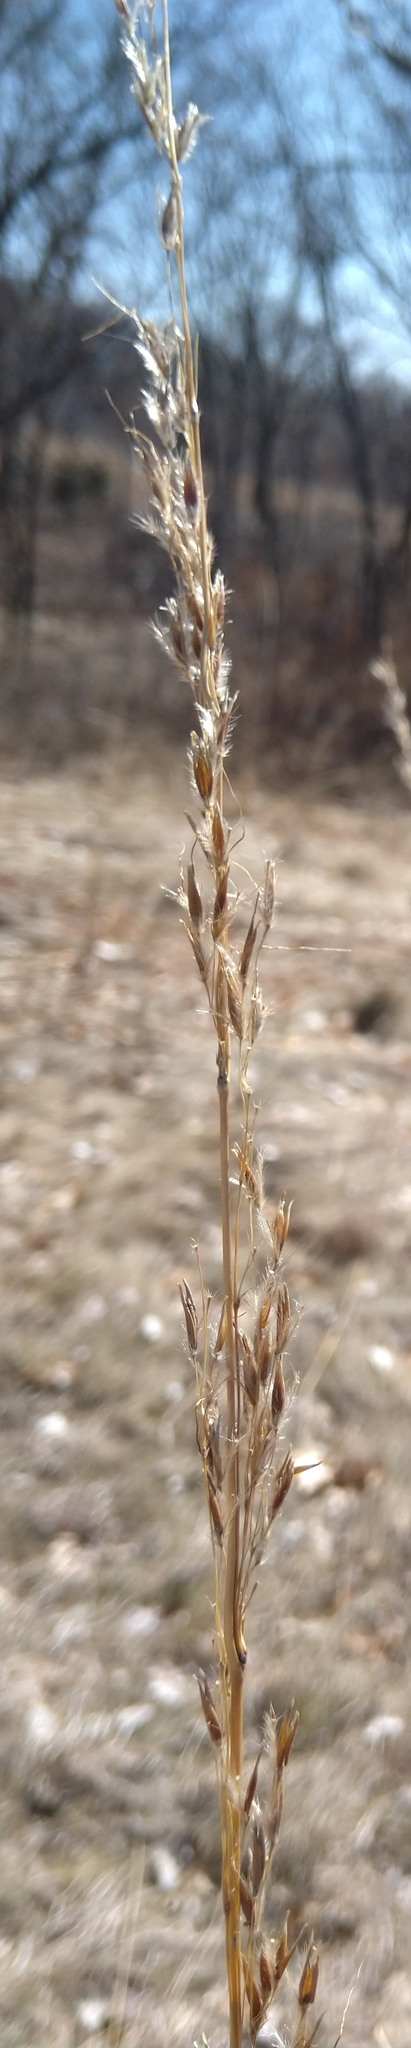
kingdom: Plantae
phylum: Tracheophyta
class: Liliopsida
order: Poales
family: Poaceae
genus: Sorghastrum
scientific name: Sorghastrum nutans
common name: Indian grass
